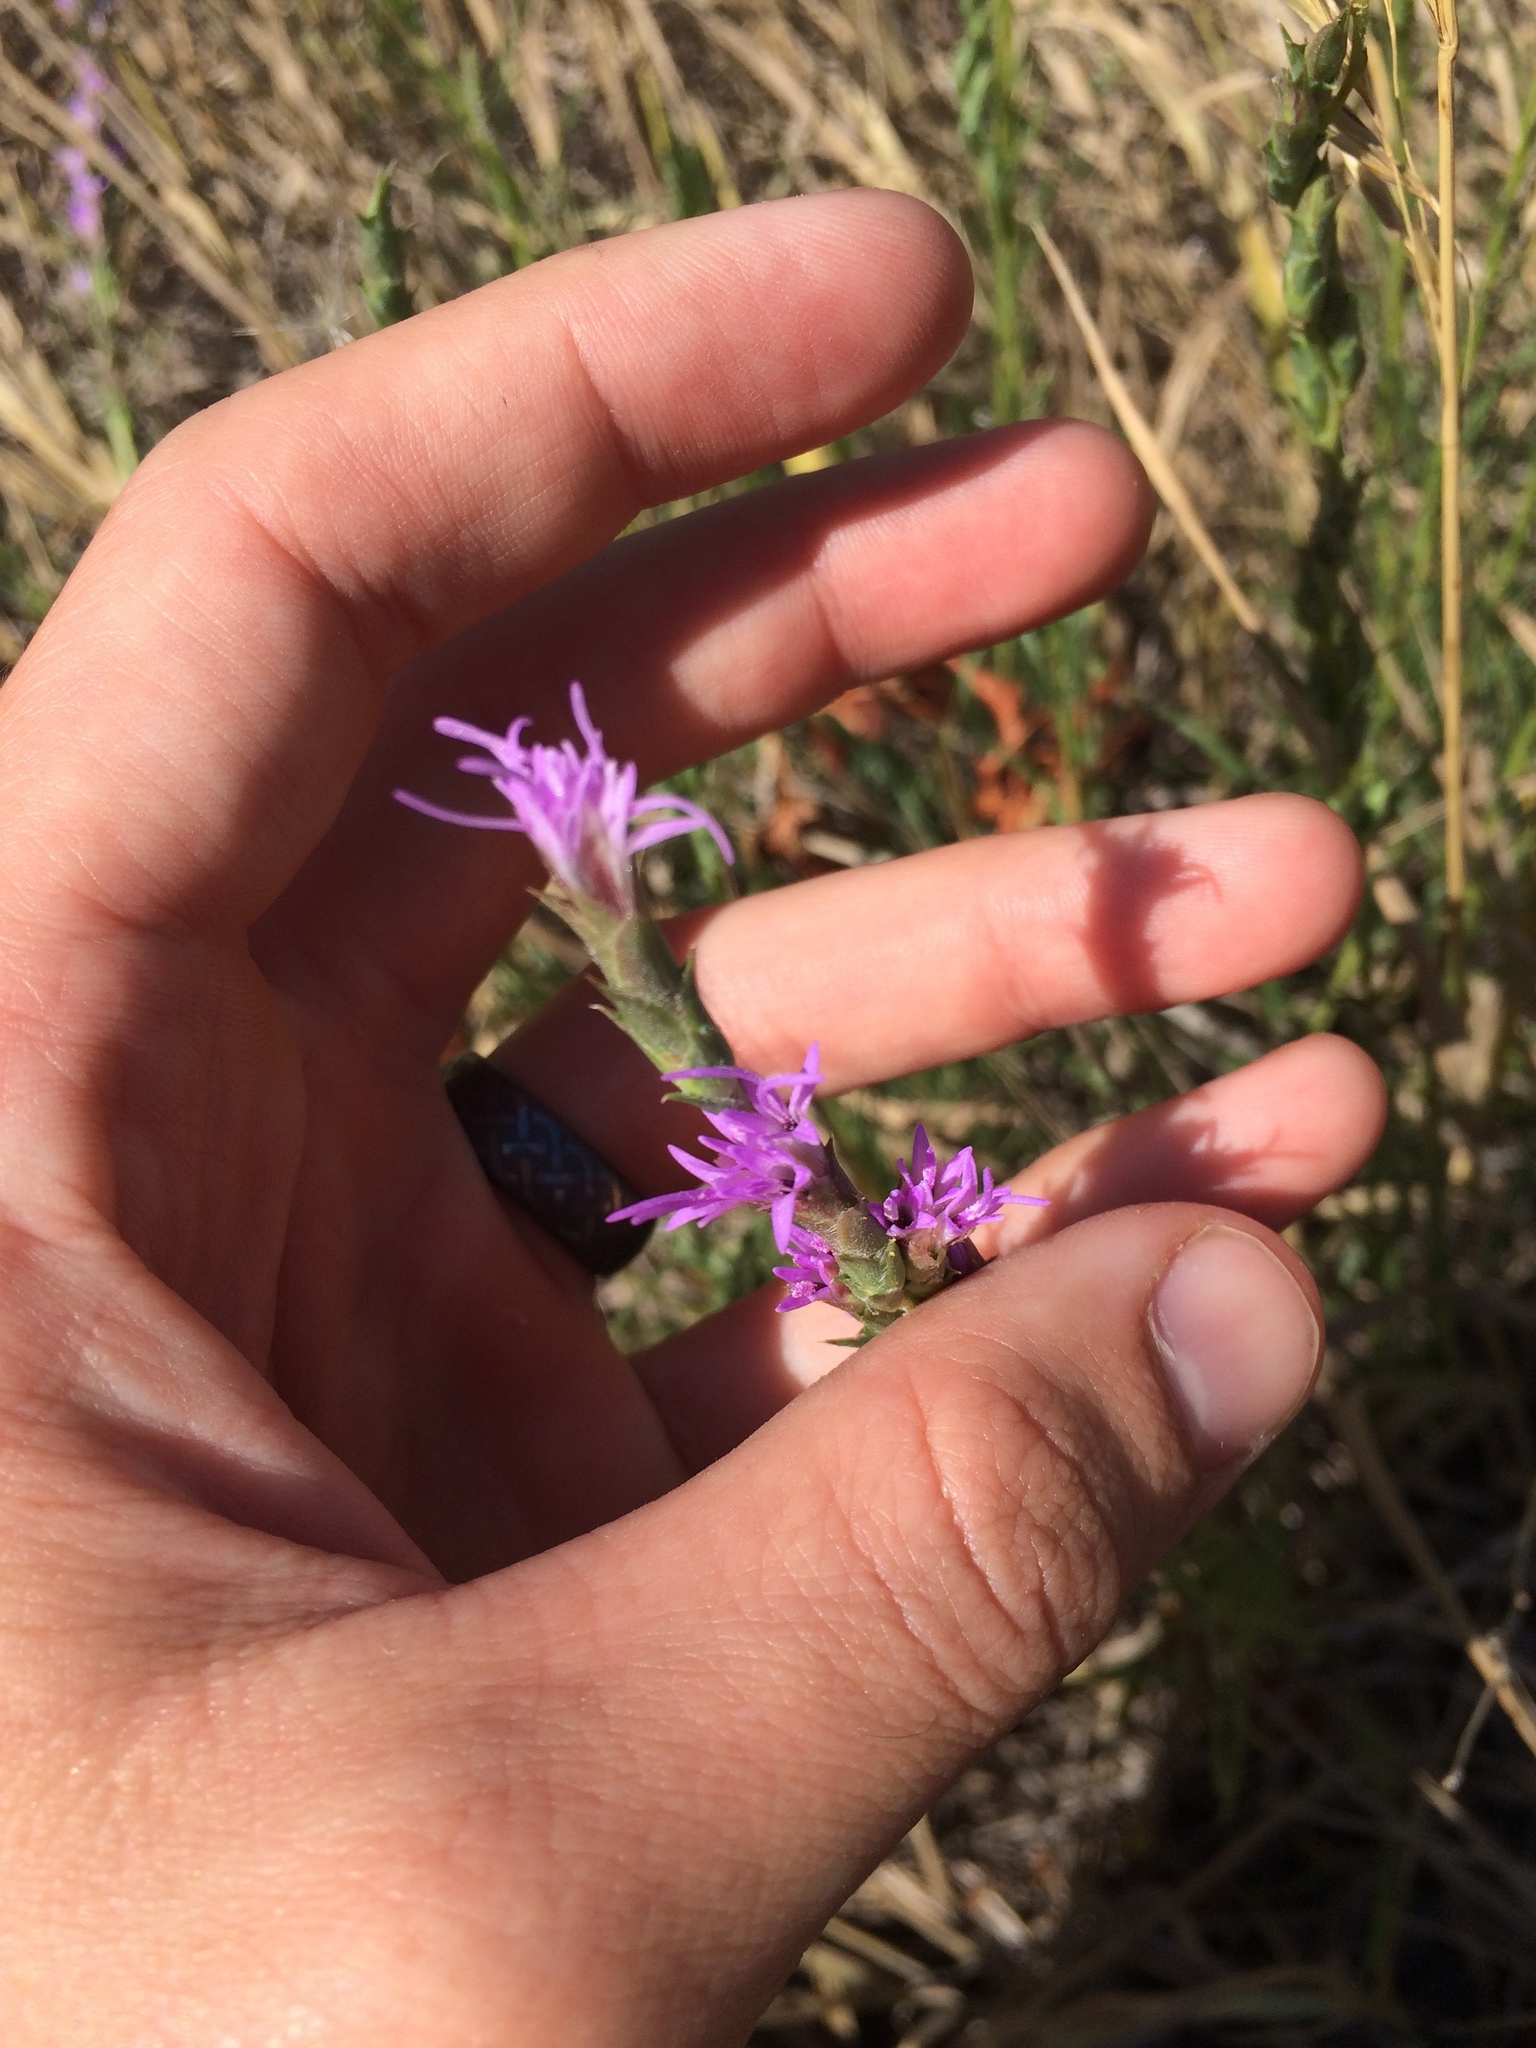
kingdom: Plantae
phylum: Tracheophyta
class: Magnoliopsida
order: Asterales
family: Asteraceae
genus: Liatris
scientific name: Liatris punctata
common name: Dotted gayfeather
